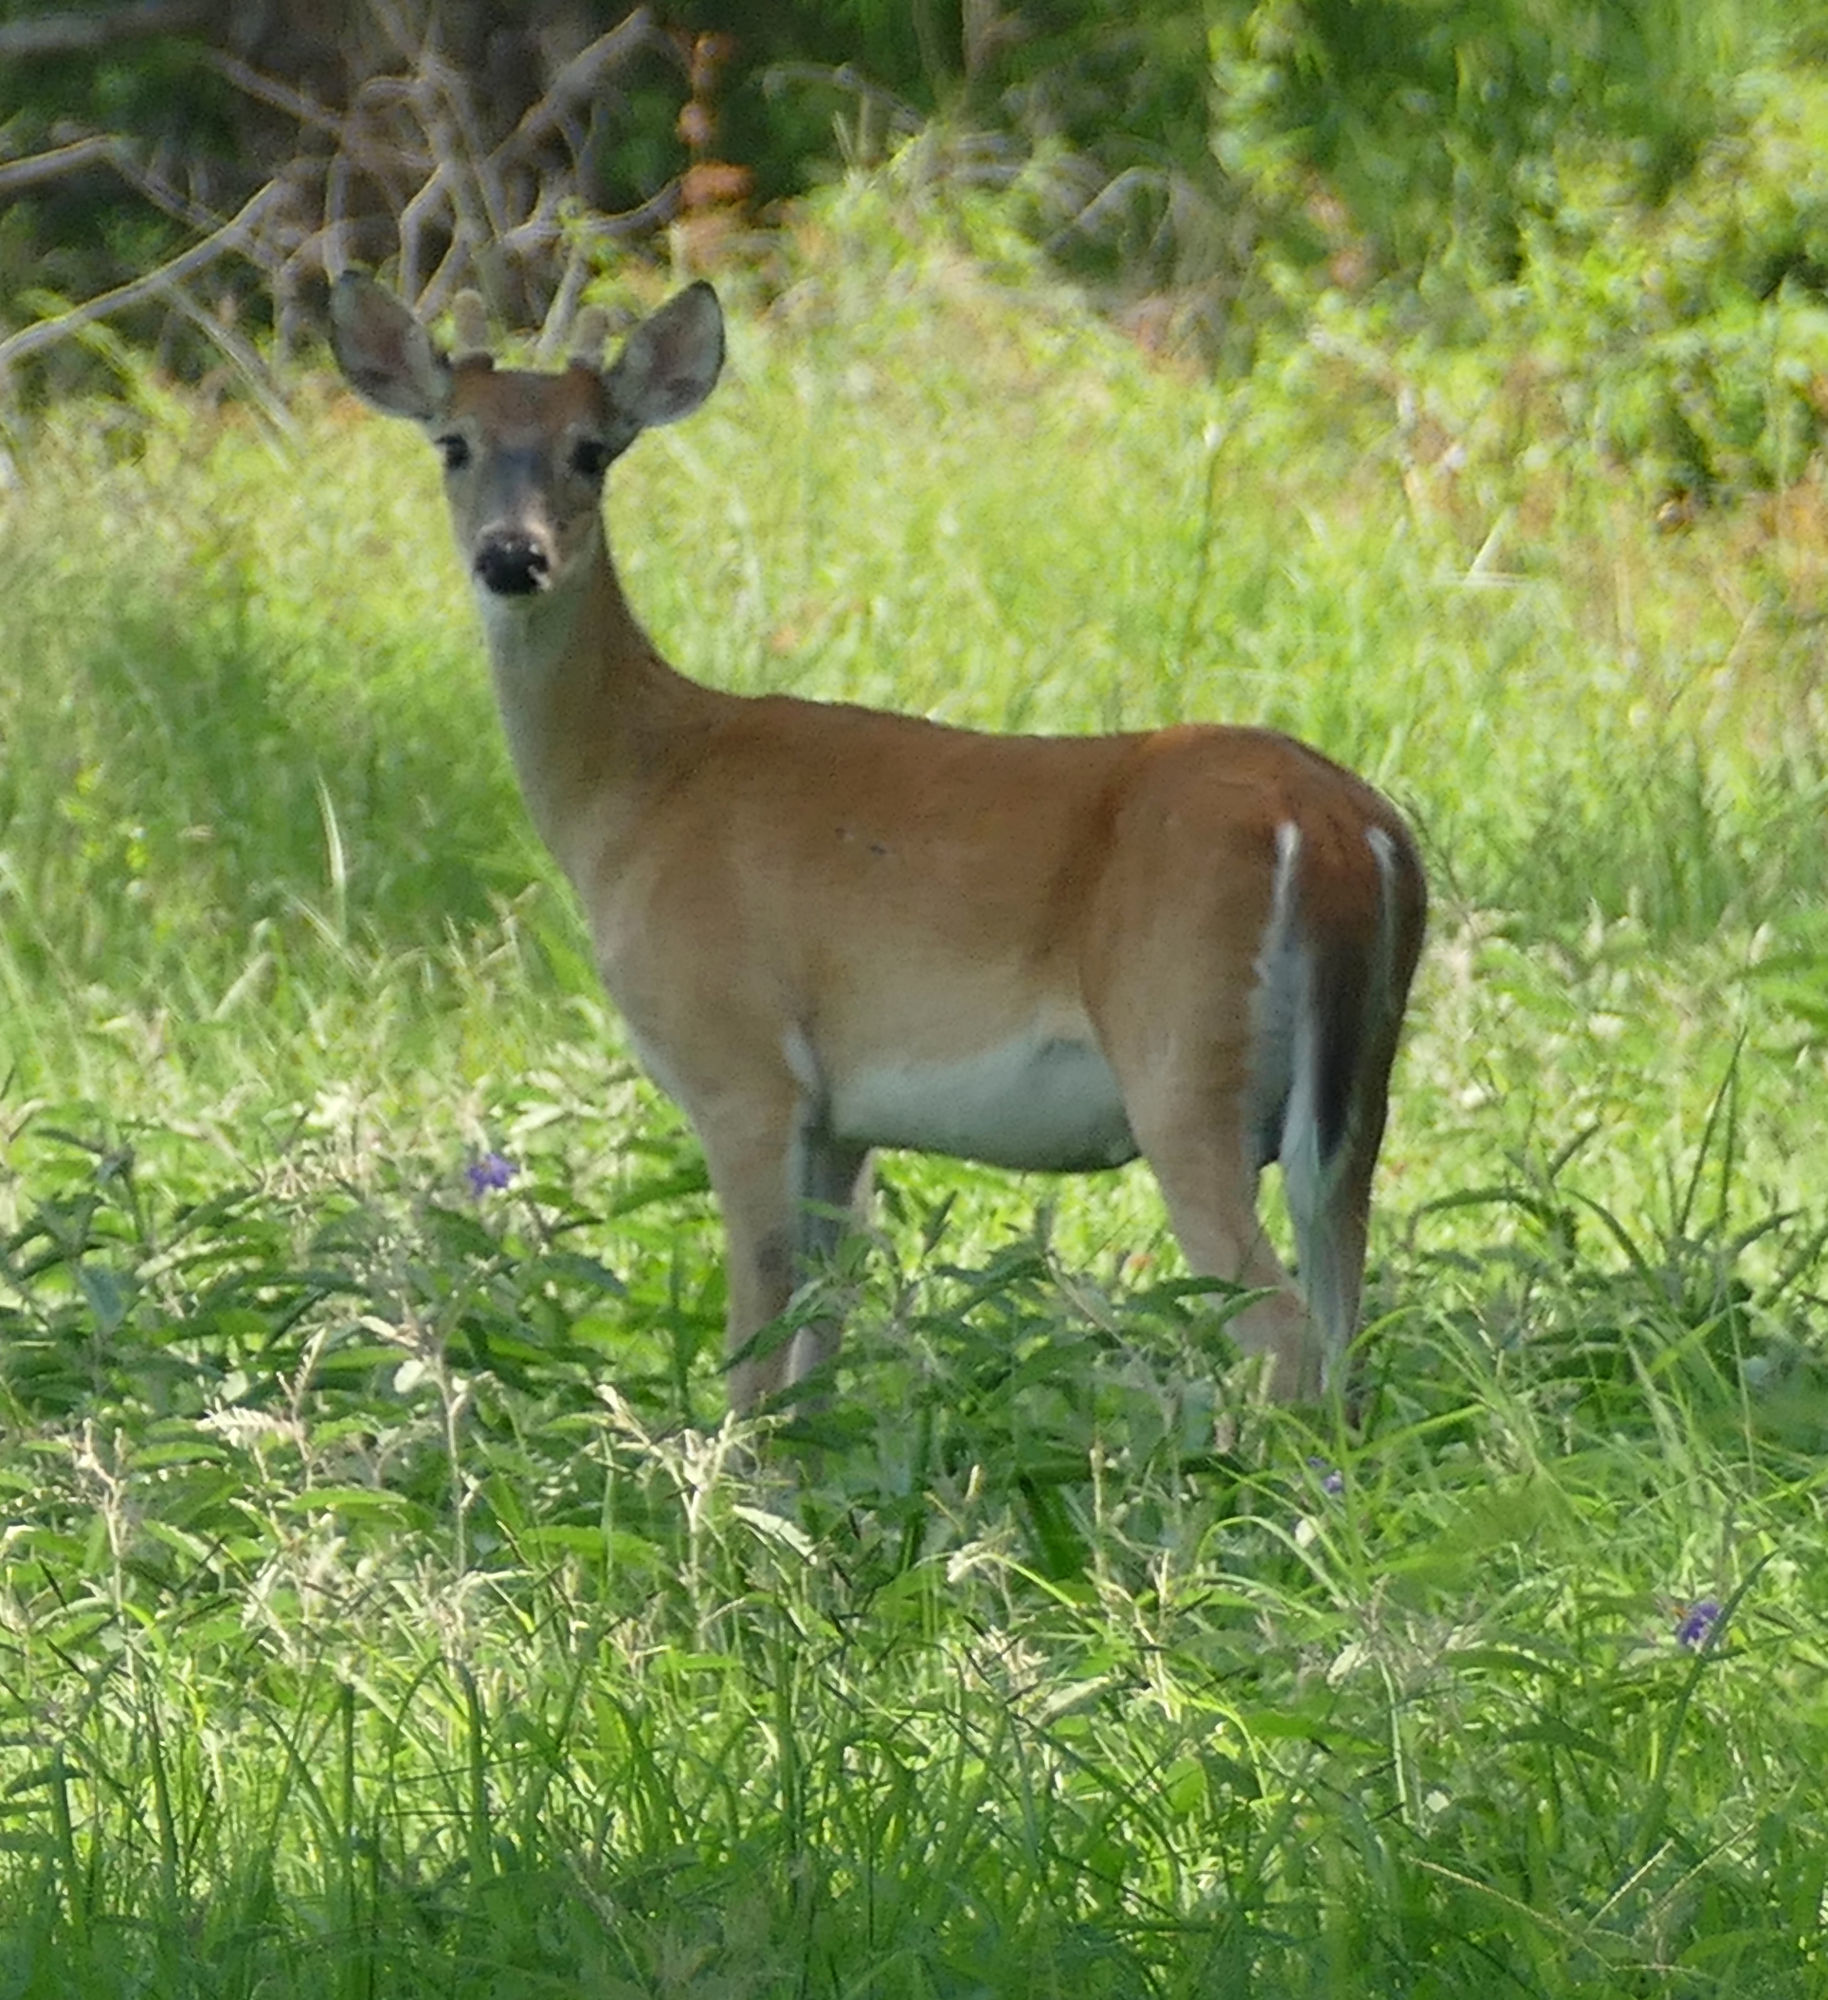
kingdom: Animalia
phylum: Chordata
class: Mammalia
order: Artiodactyla
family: Cervidae
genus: Odocoileus
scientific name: Odocoileus virginianus
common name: White-tailed deer
